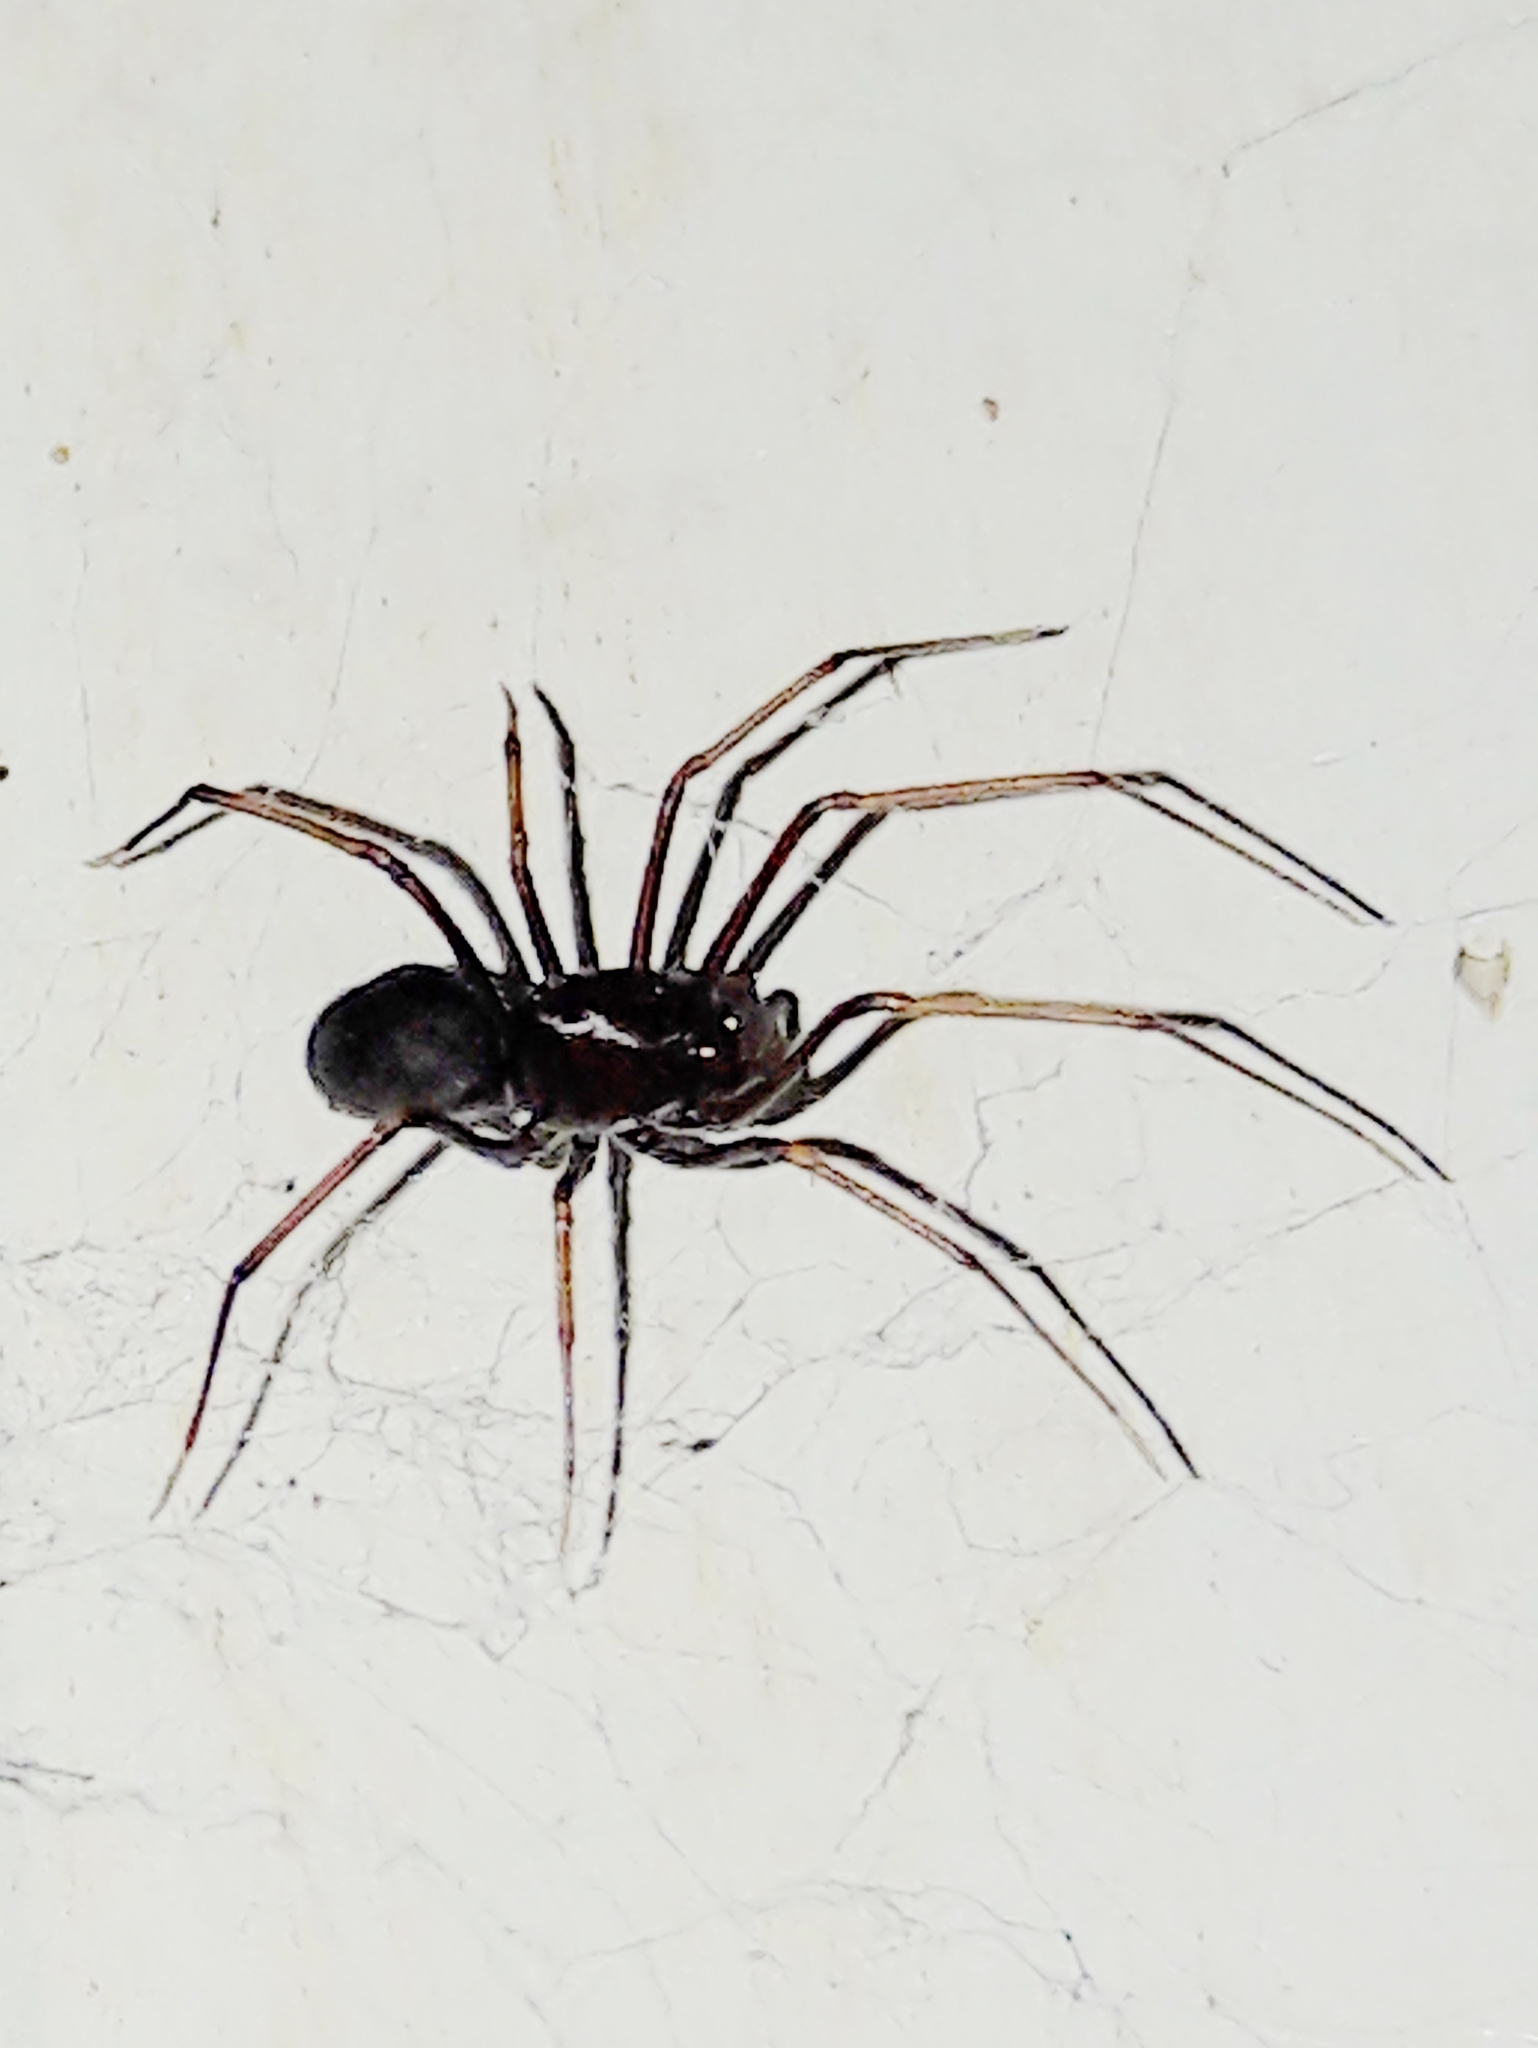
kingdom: Animalia
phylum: Arthropoda
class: Arachnida
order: Araneae
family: Scytodidae
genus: Scytodes
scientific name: Scytodes fusca
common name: Spitting spiders
